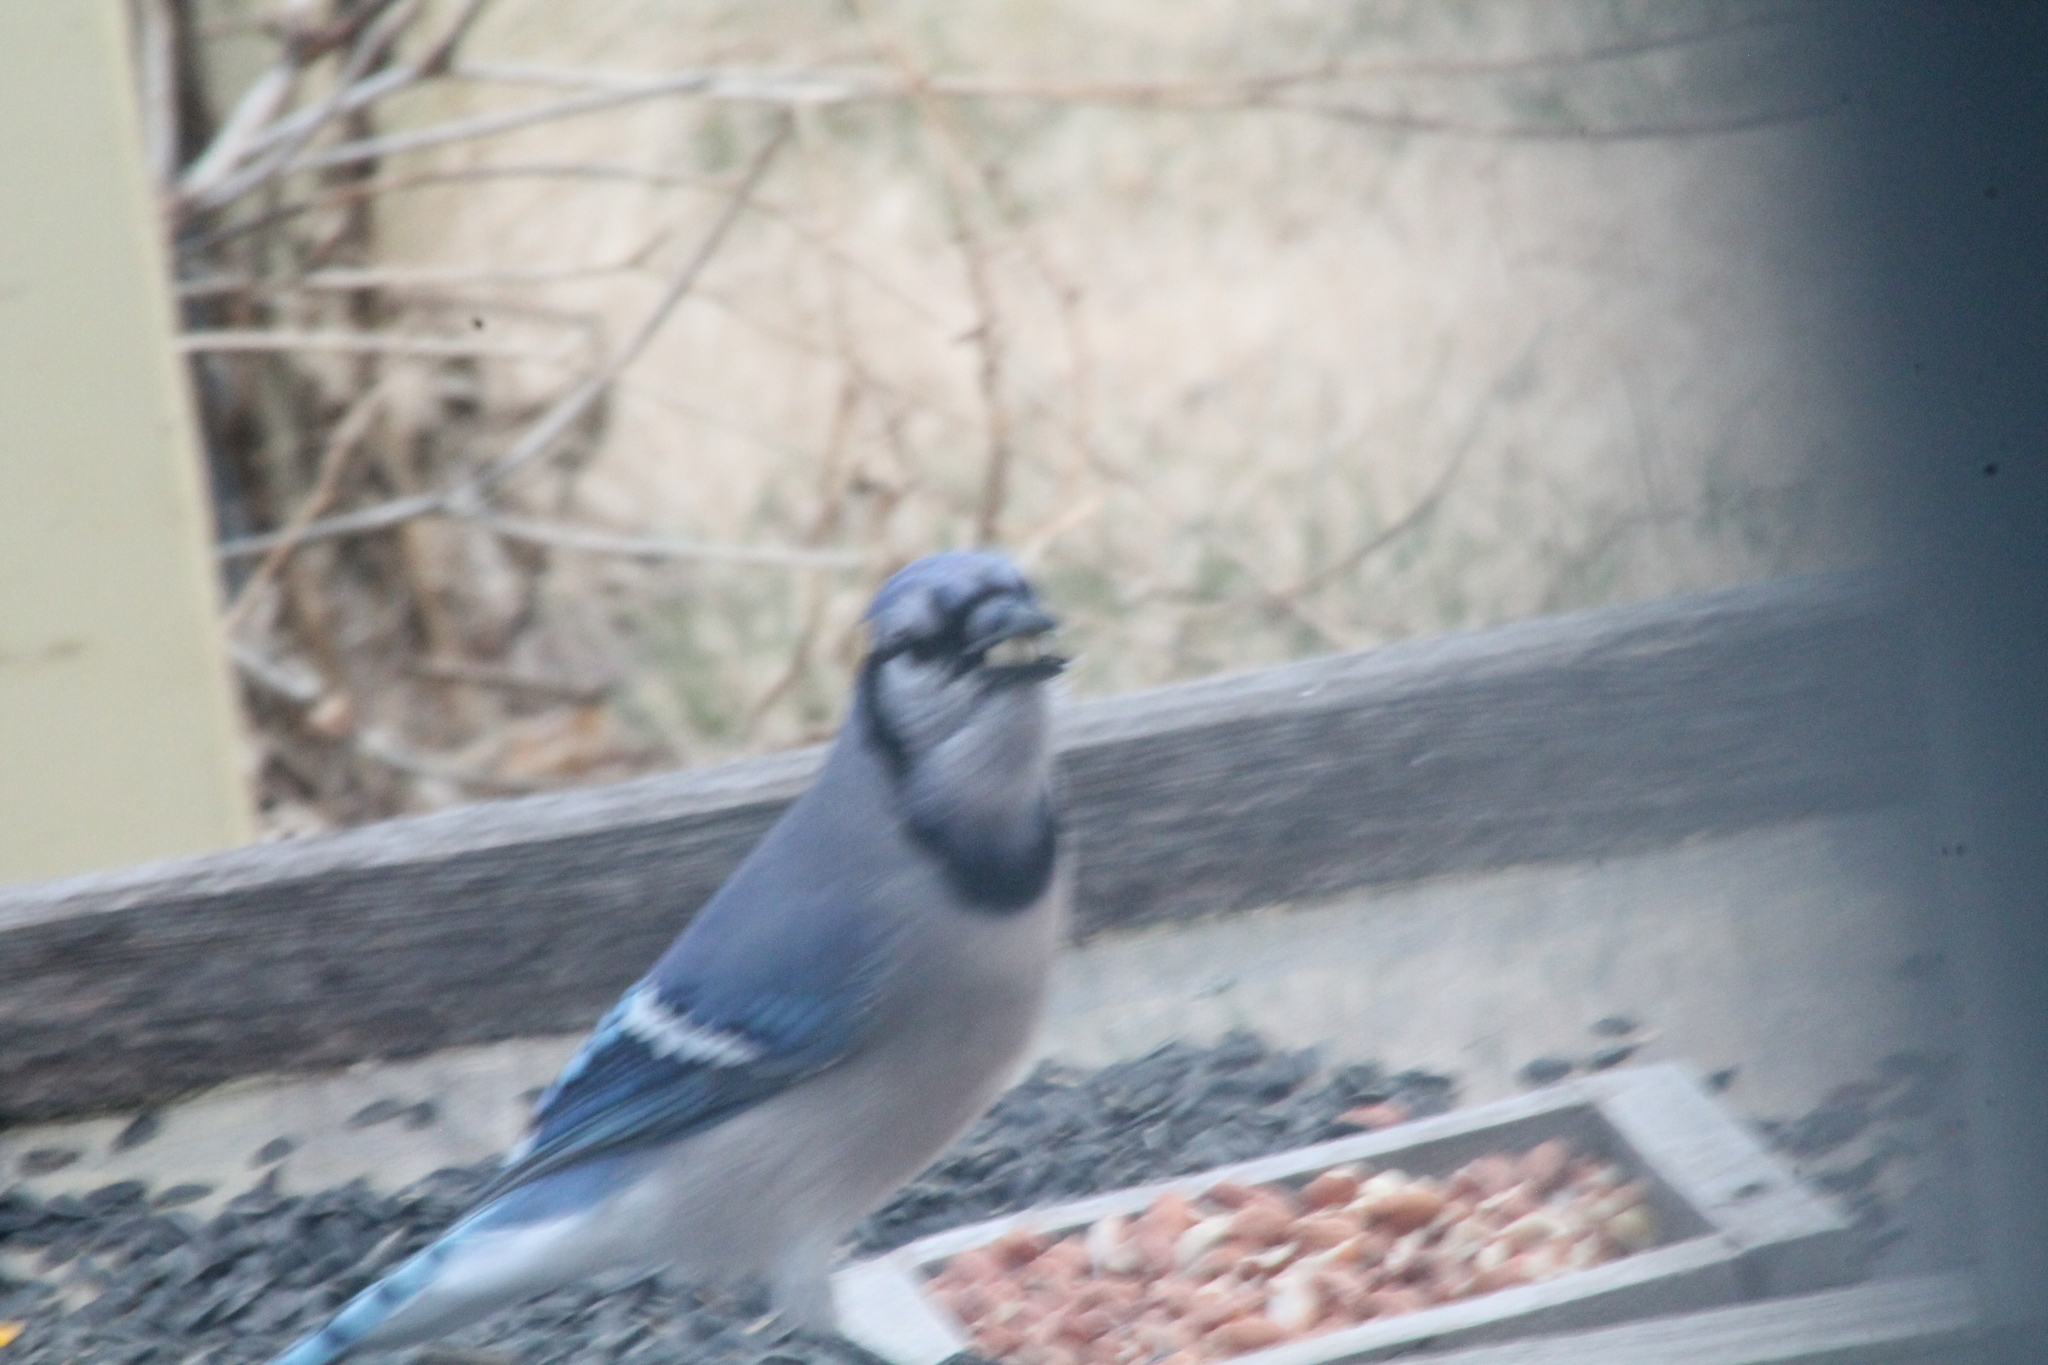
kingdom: Animalia
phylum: Chordata
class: Aves
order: Passeriformes
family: Corvidae
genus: Cyanocitta
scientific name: Cyanocitta cristata
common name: Blue jay
